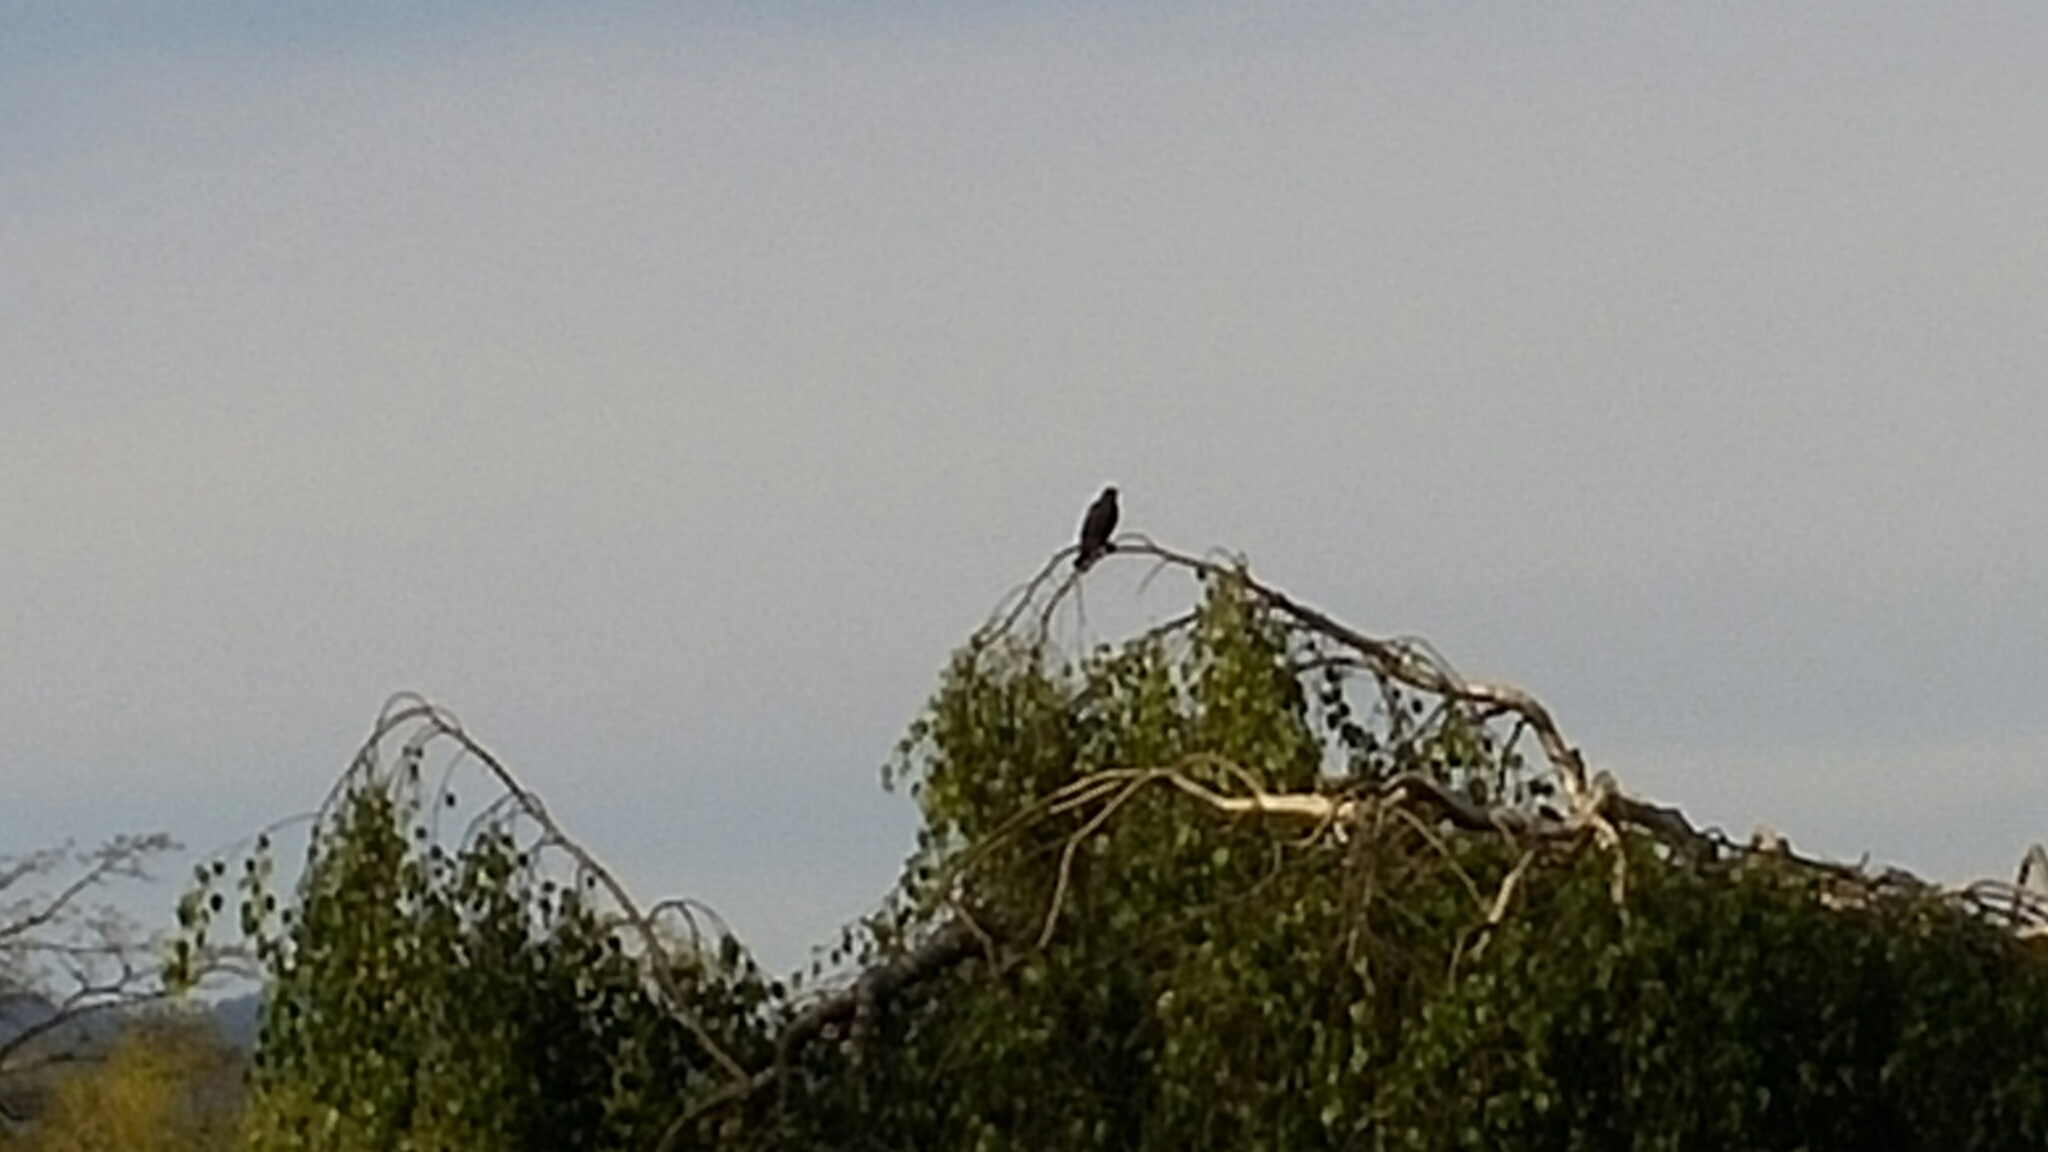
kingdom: Animalia
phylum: Chordata
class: Aves
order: Passeriformes
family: Icteridae
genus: Agelaius
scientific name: Agelaius phoeniceus
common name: Red-winged blackbird
